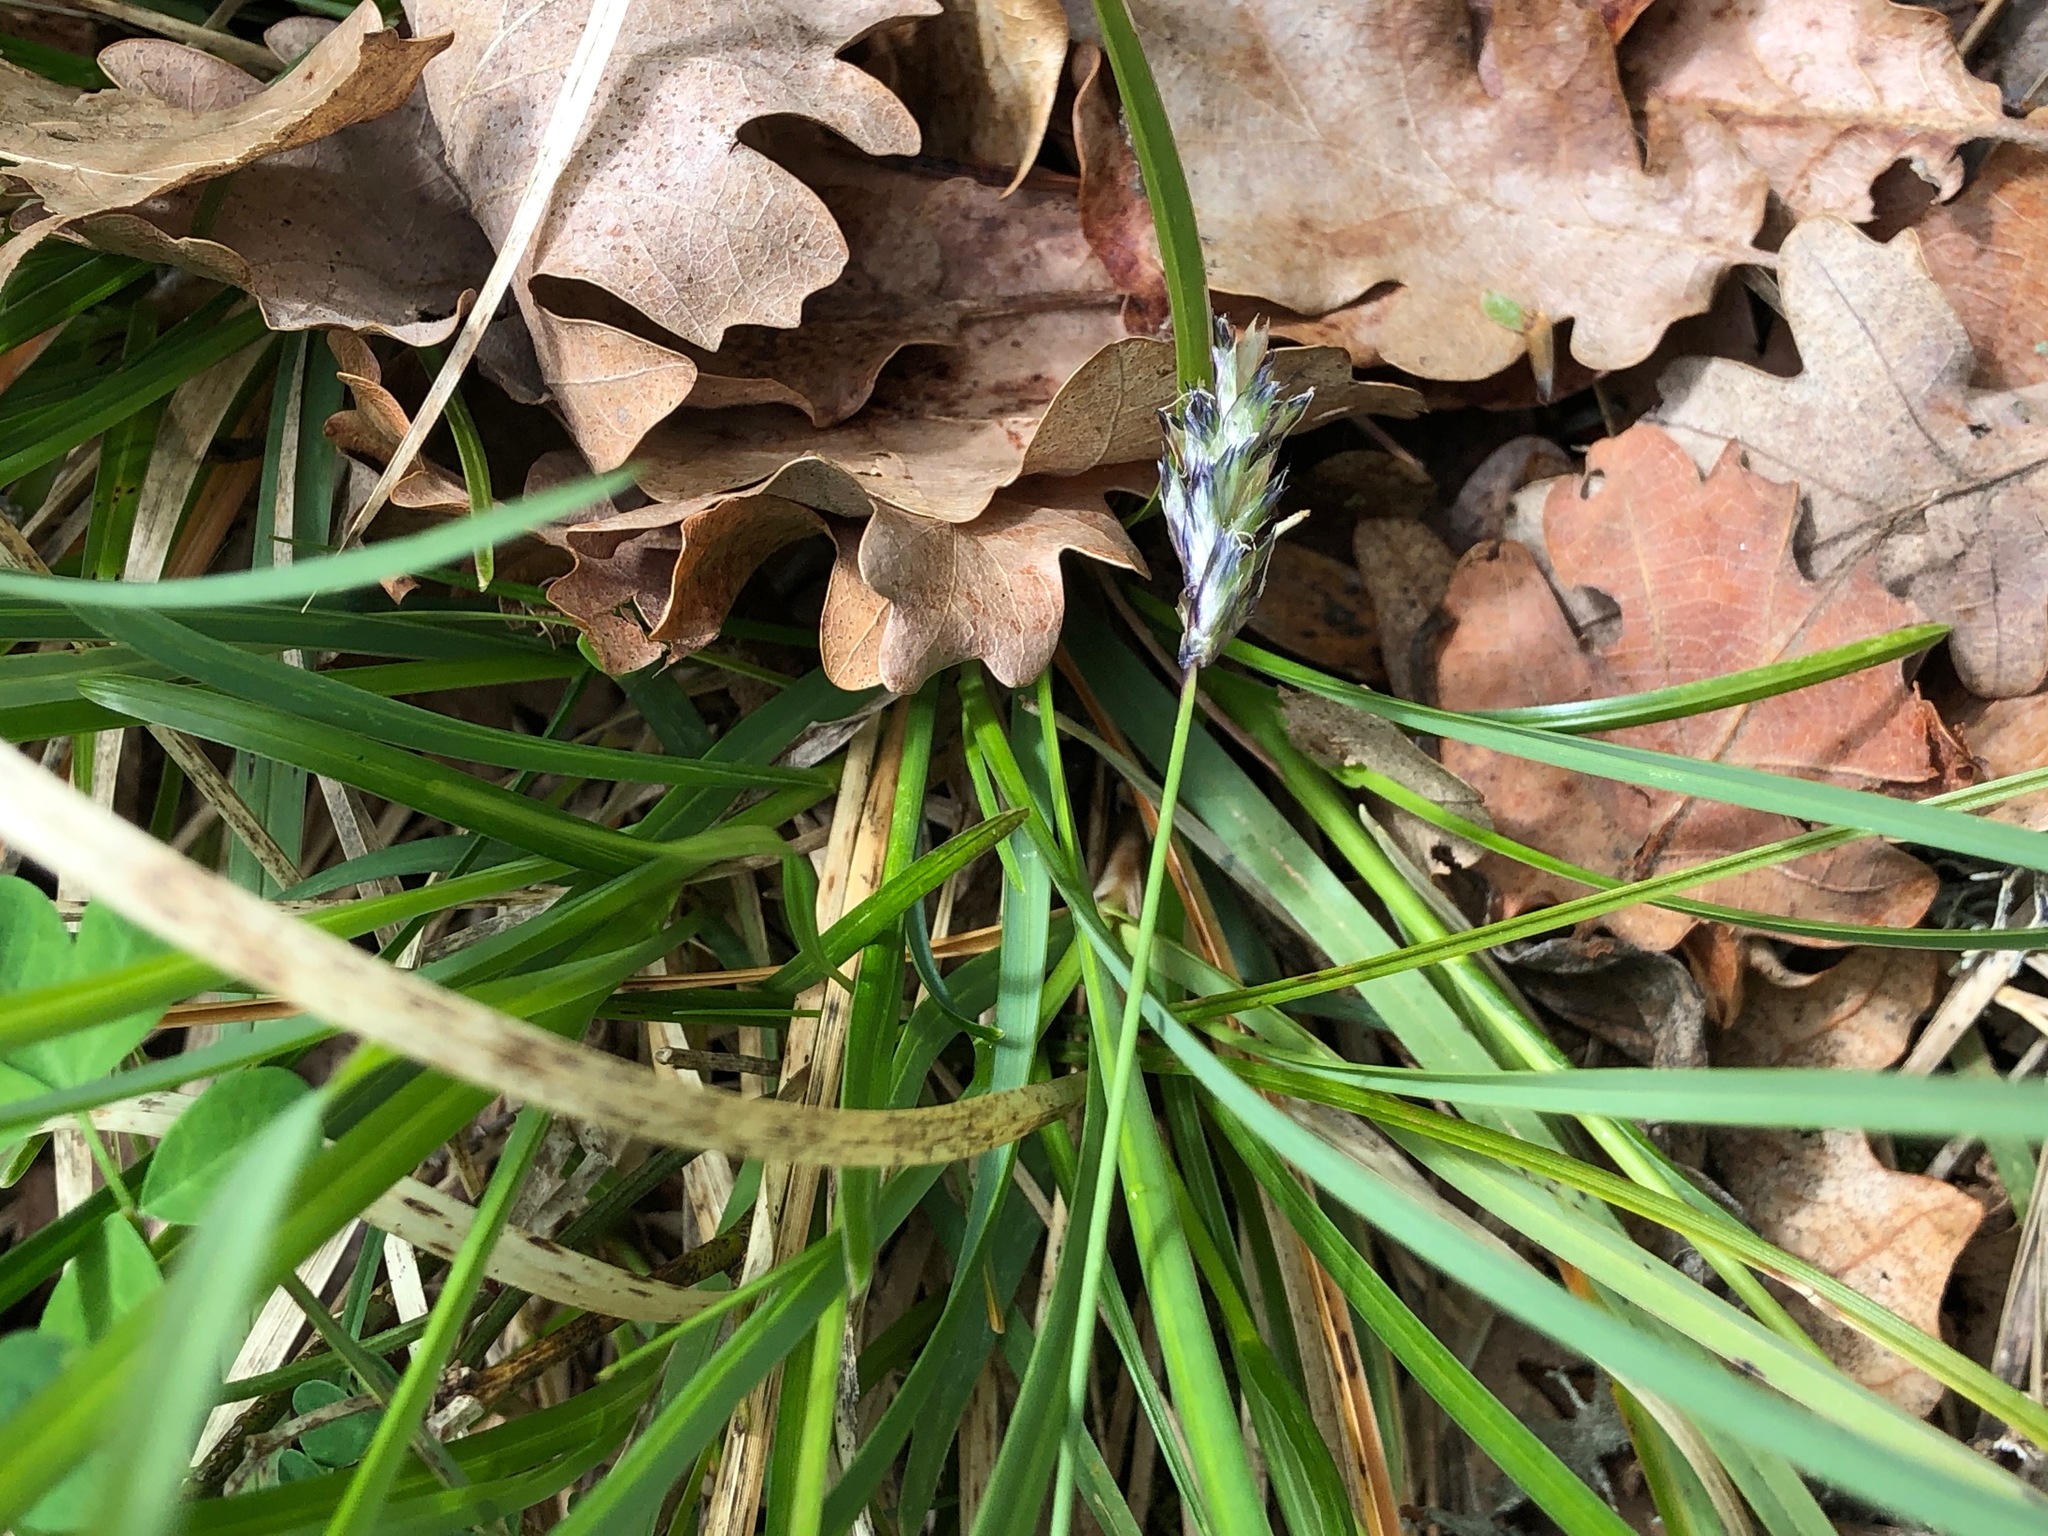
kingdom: Plantae
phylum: Tracheophyta
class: Liliopsida
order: Poales
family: Poaceae
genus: Sesleria
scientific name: Sesleria caerulea
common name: Blue moor-grass
